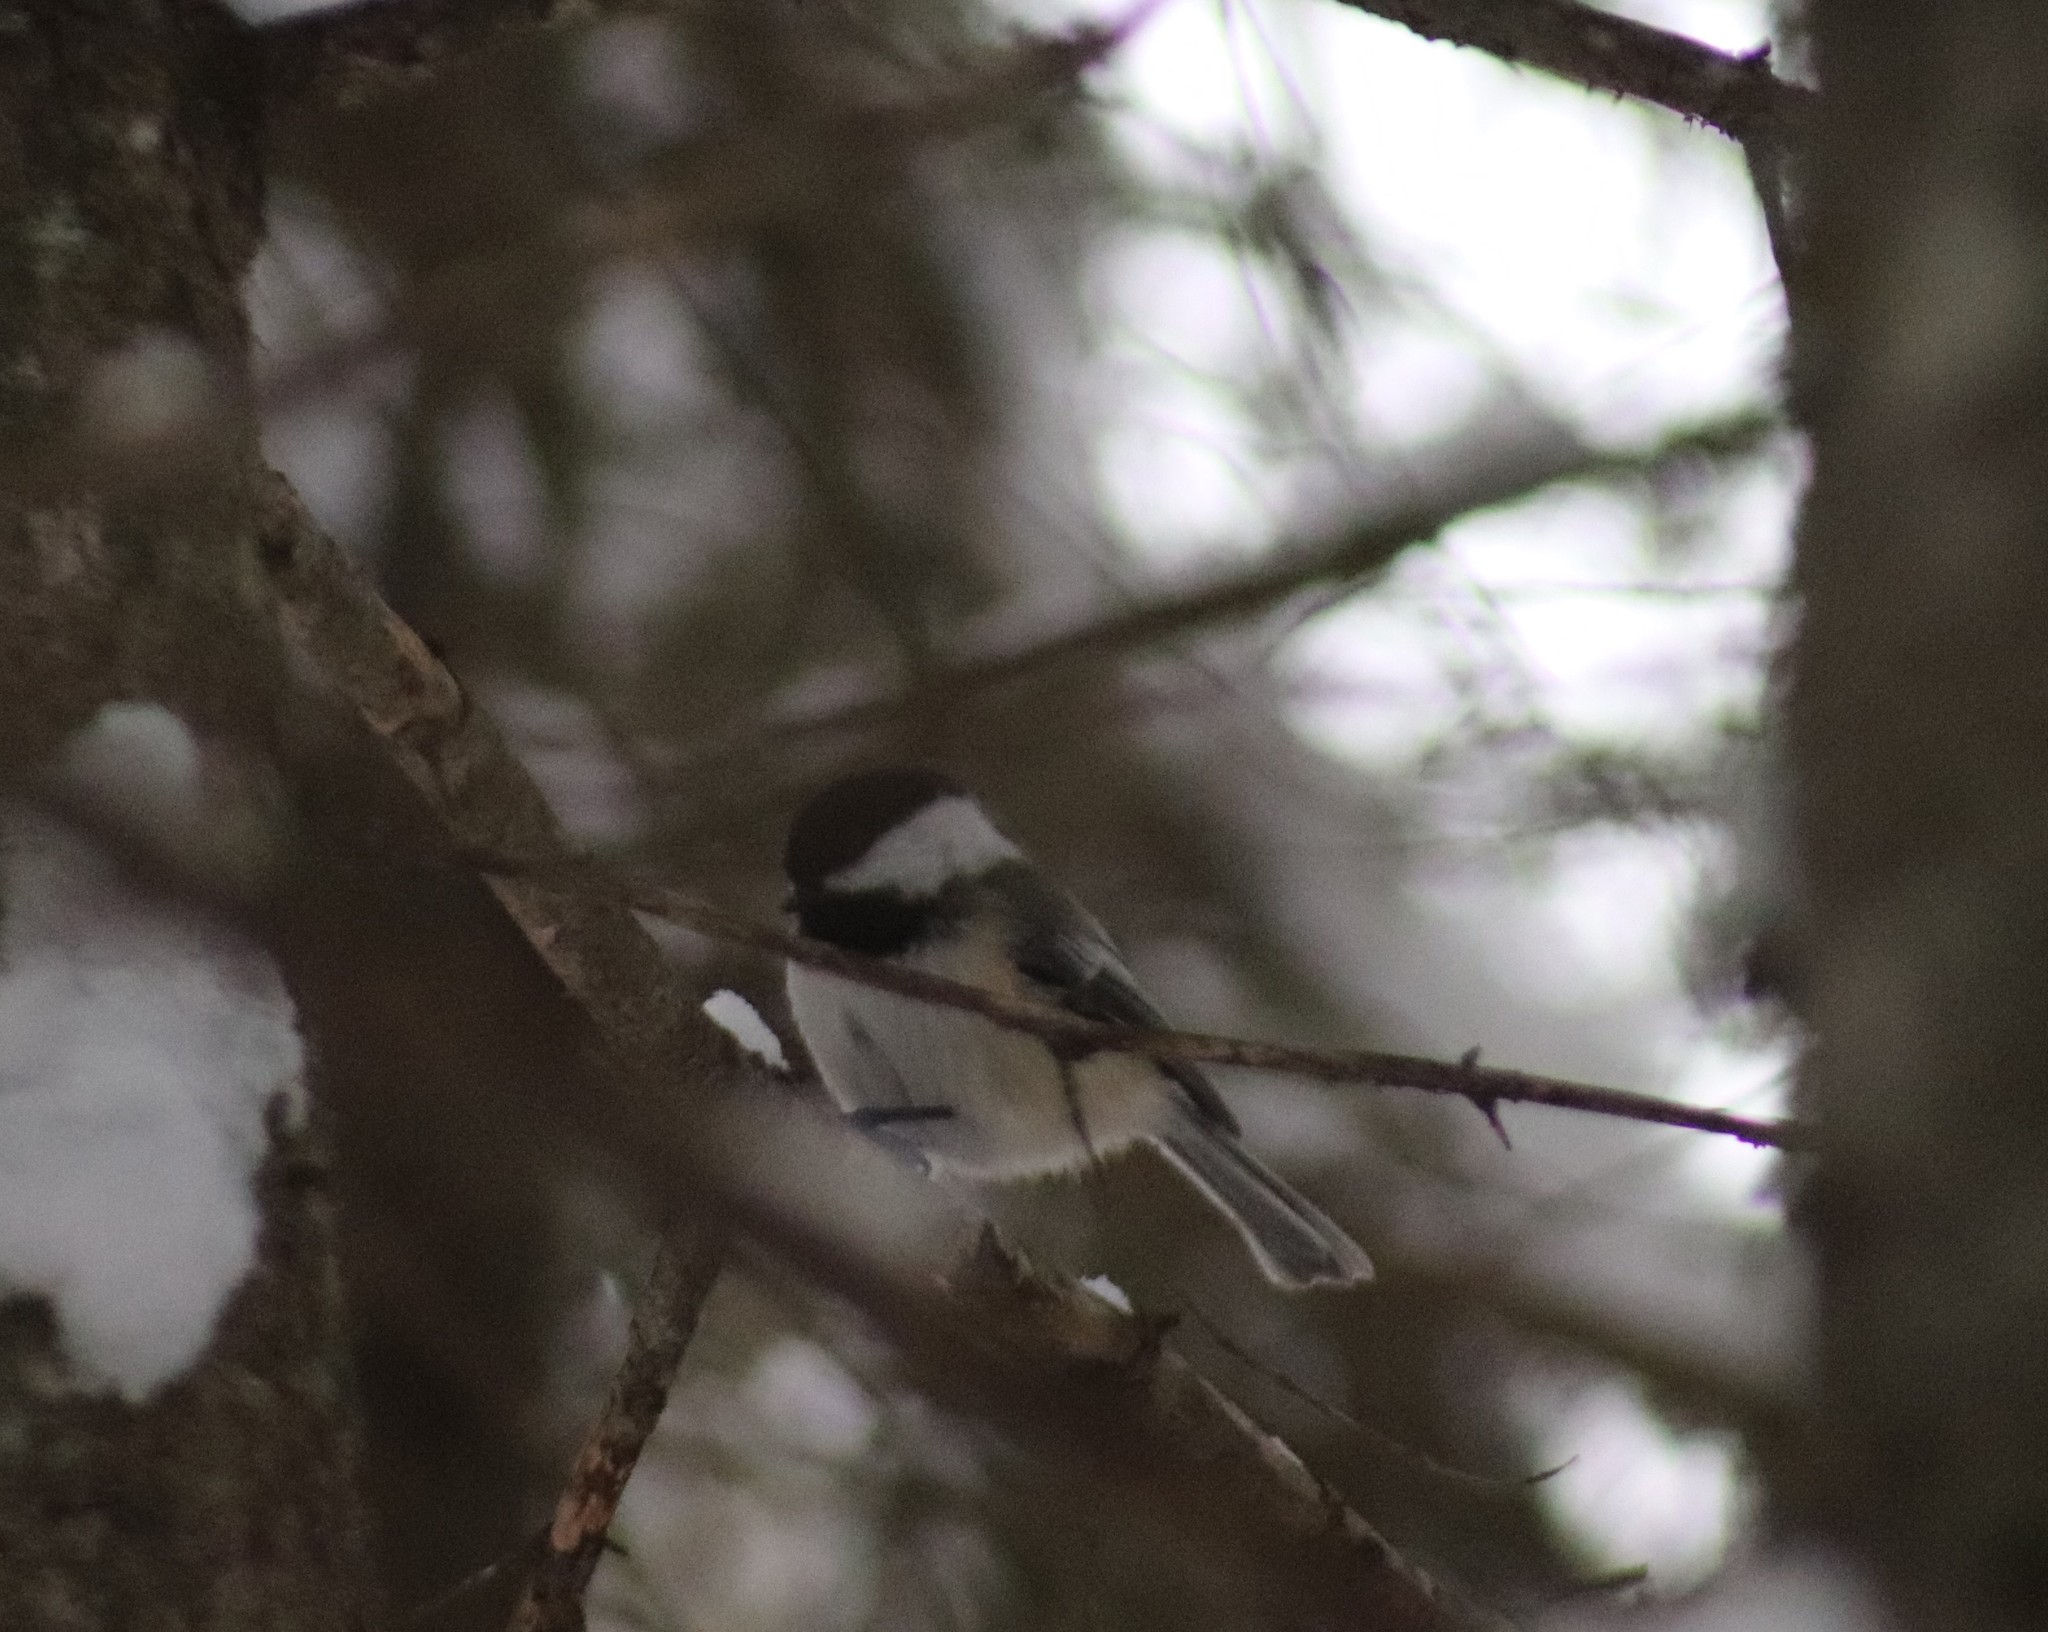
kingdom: Animalia
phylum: Chordata
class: Aves
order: Passeriformes
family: Paridae
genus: Poecile
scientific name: Poecile atricapillus
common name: Black-capped chickadee
